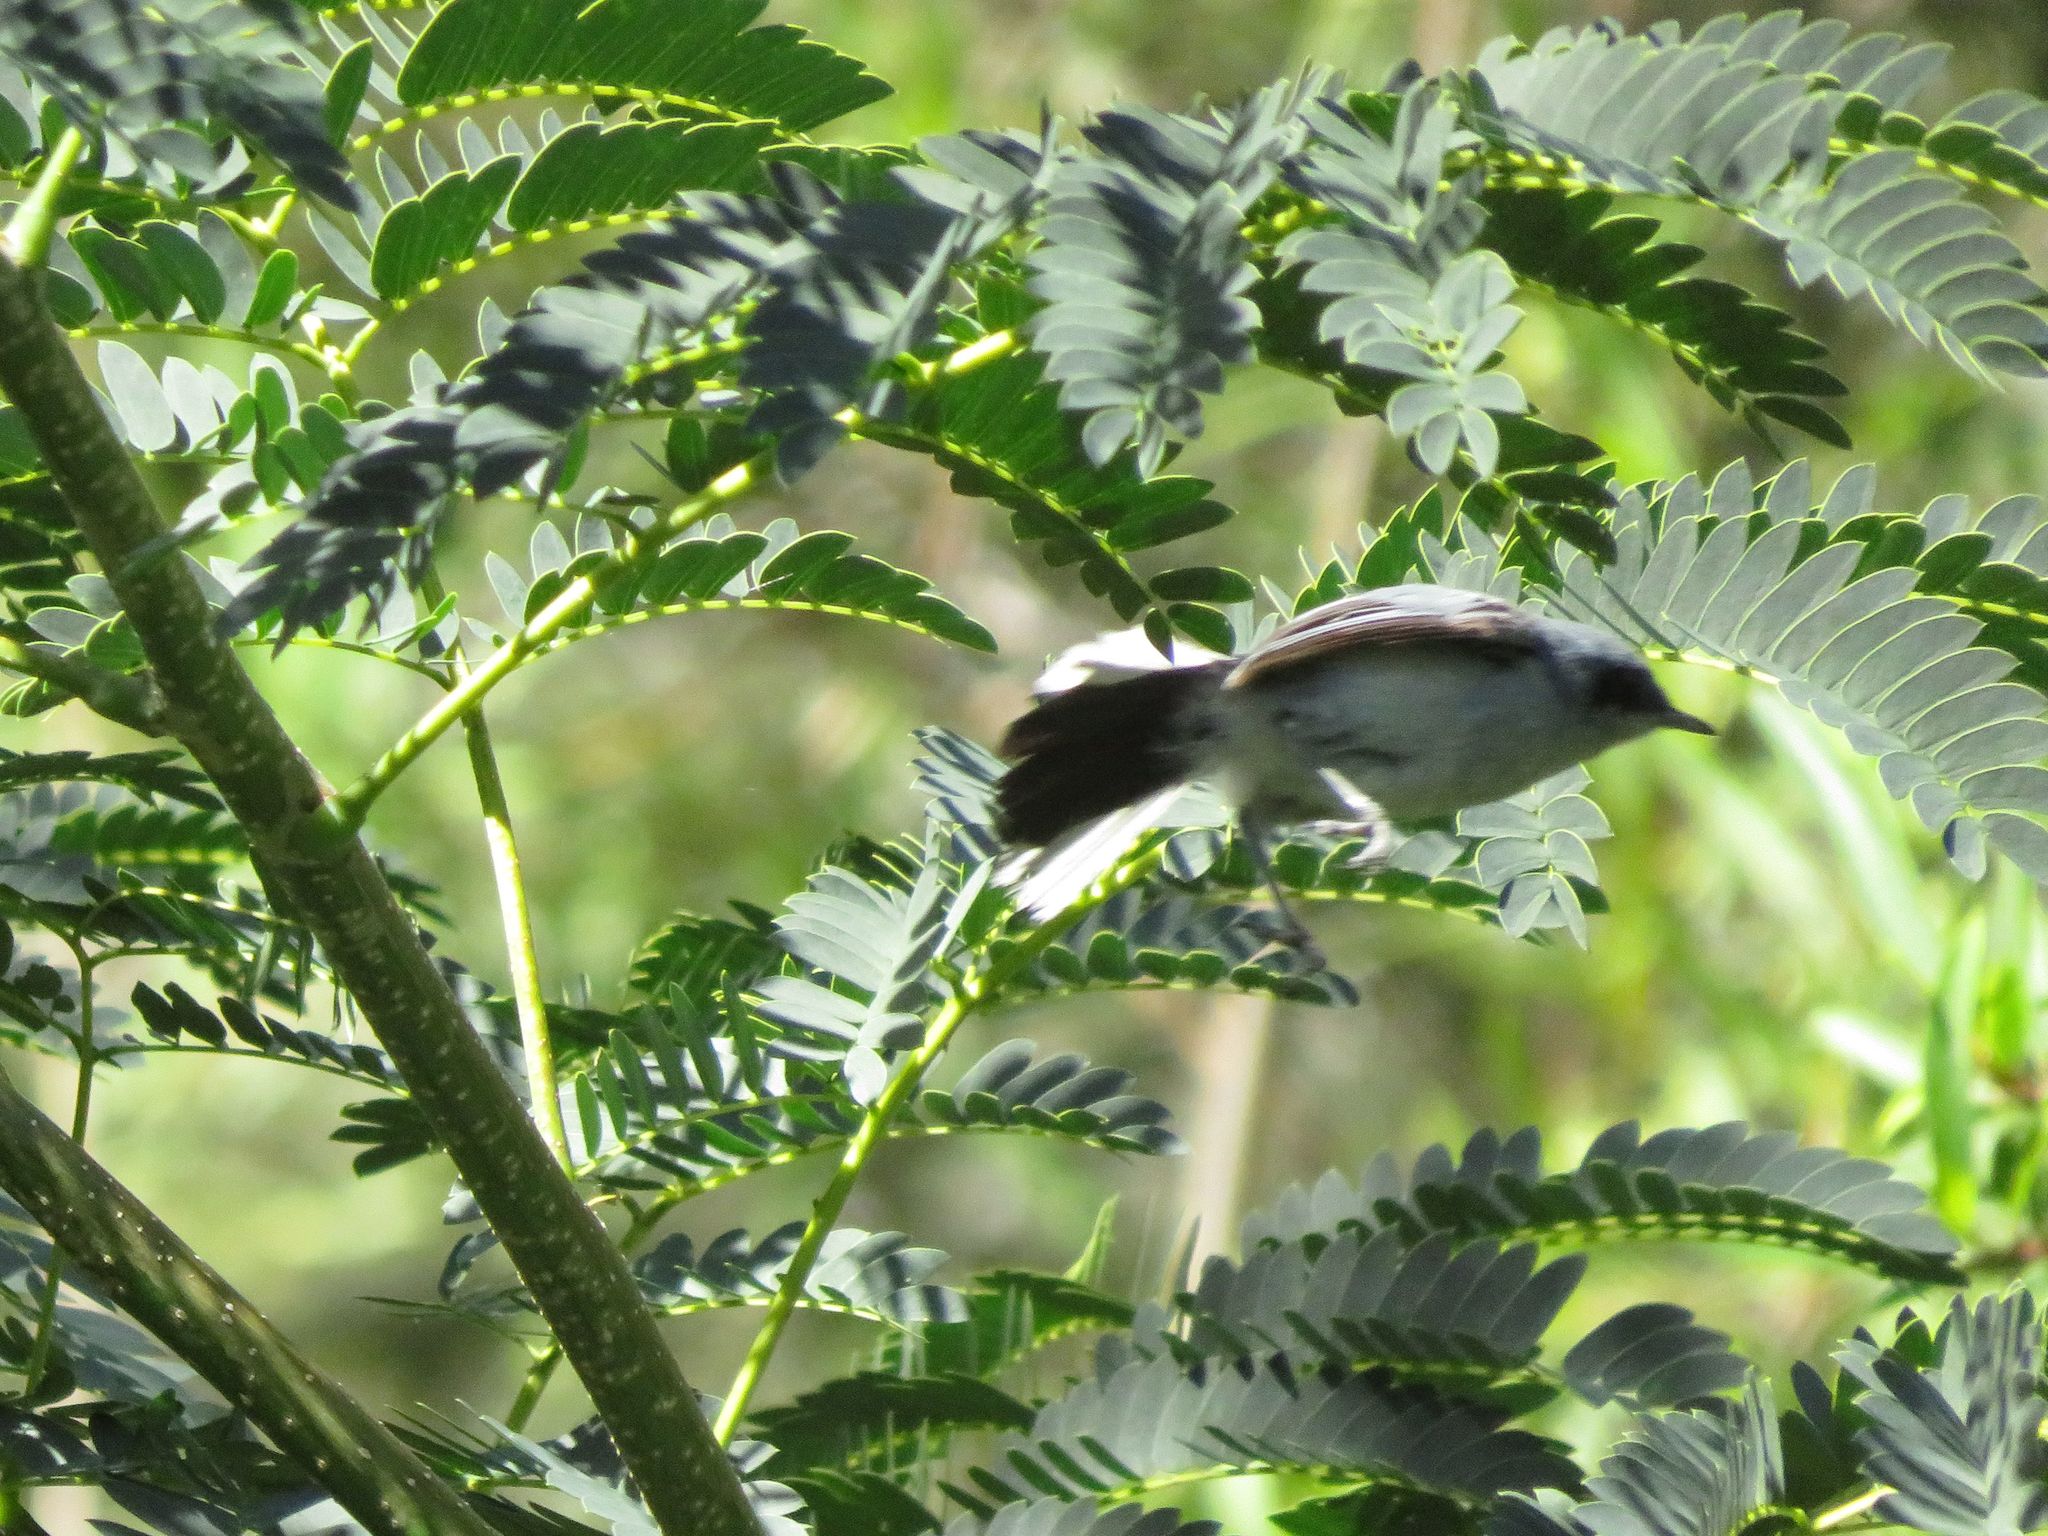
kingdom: Animalia
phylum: Chordata
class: Aves
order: Passeriformes
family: Polioptilidae
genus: Polioptila
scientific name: Polioptila dumicola
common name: Masked gnatcatcher
